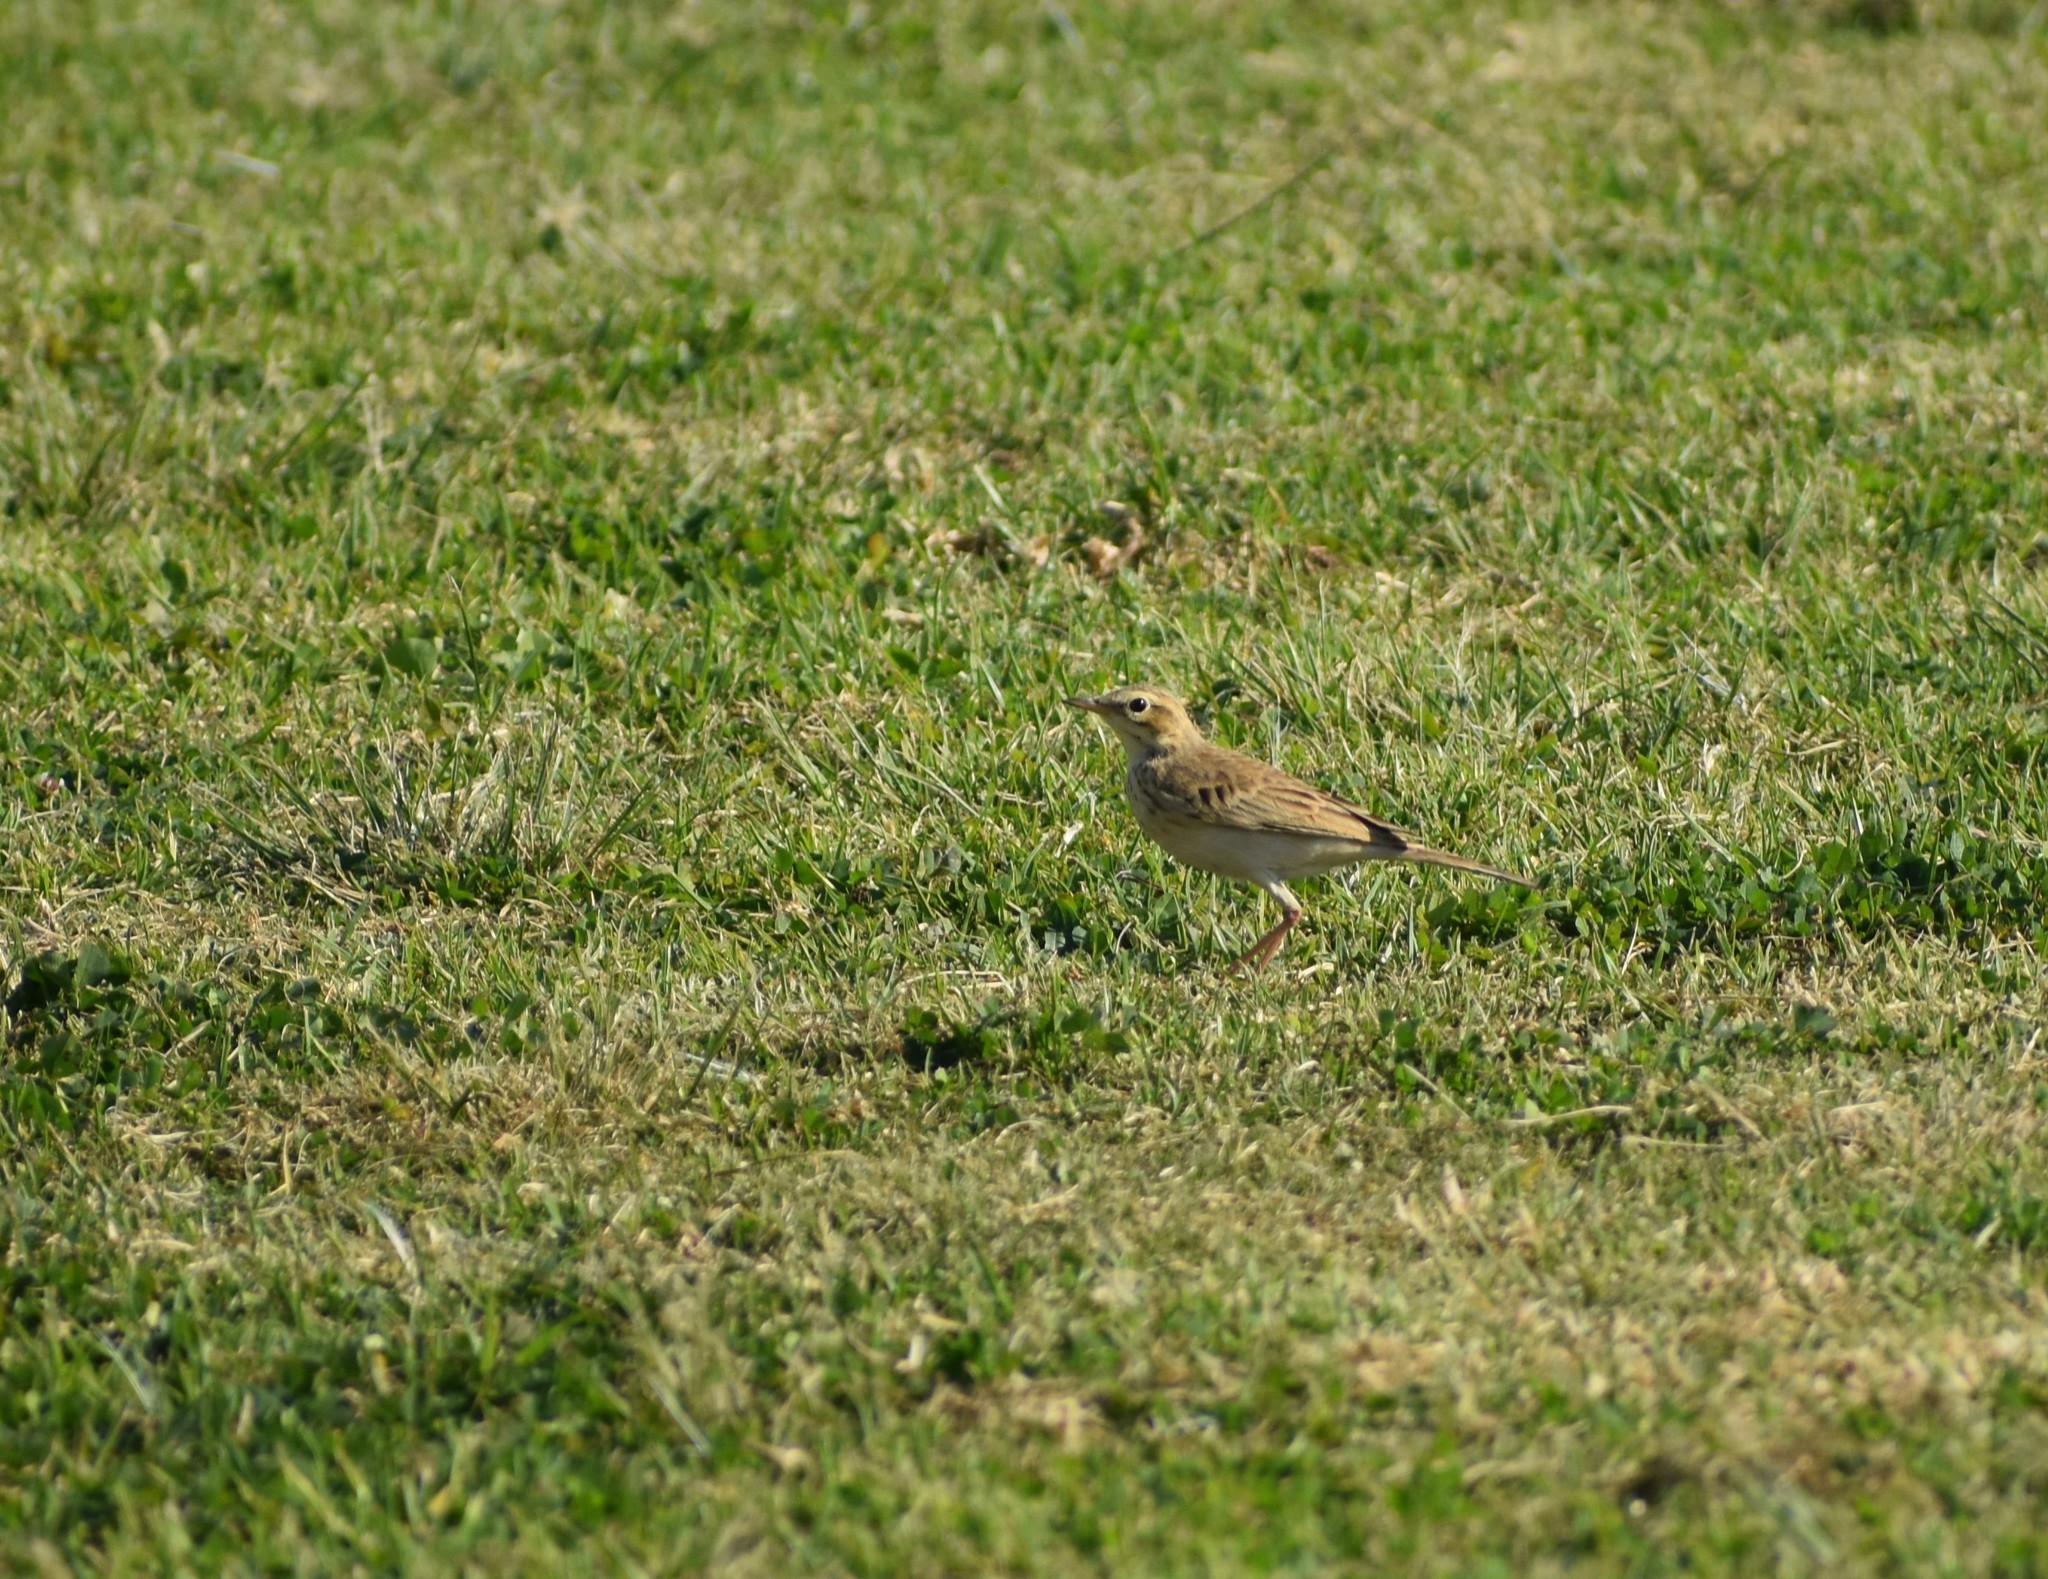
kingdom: Animalia
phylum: Chordata
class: Aves
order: Passeriformes
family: Motacillidae
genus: Anthus
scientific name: Anthus cinnamomeus
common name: African pipit
